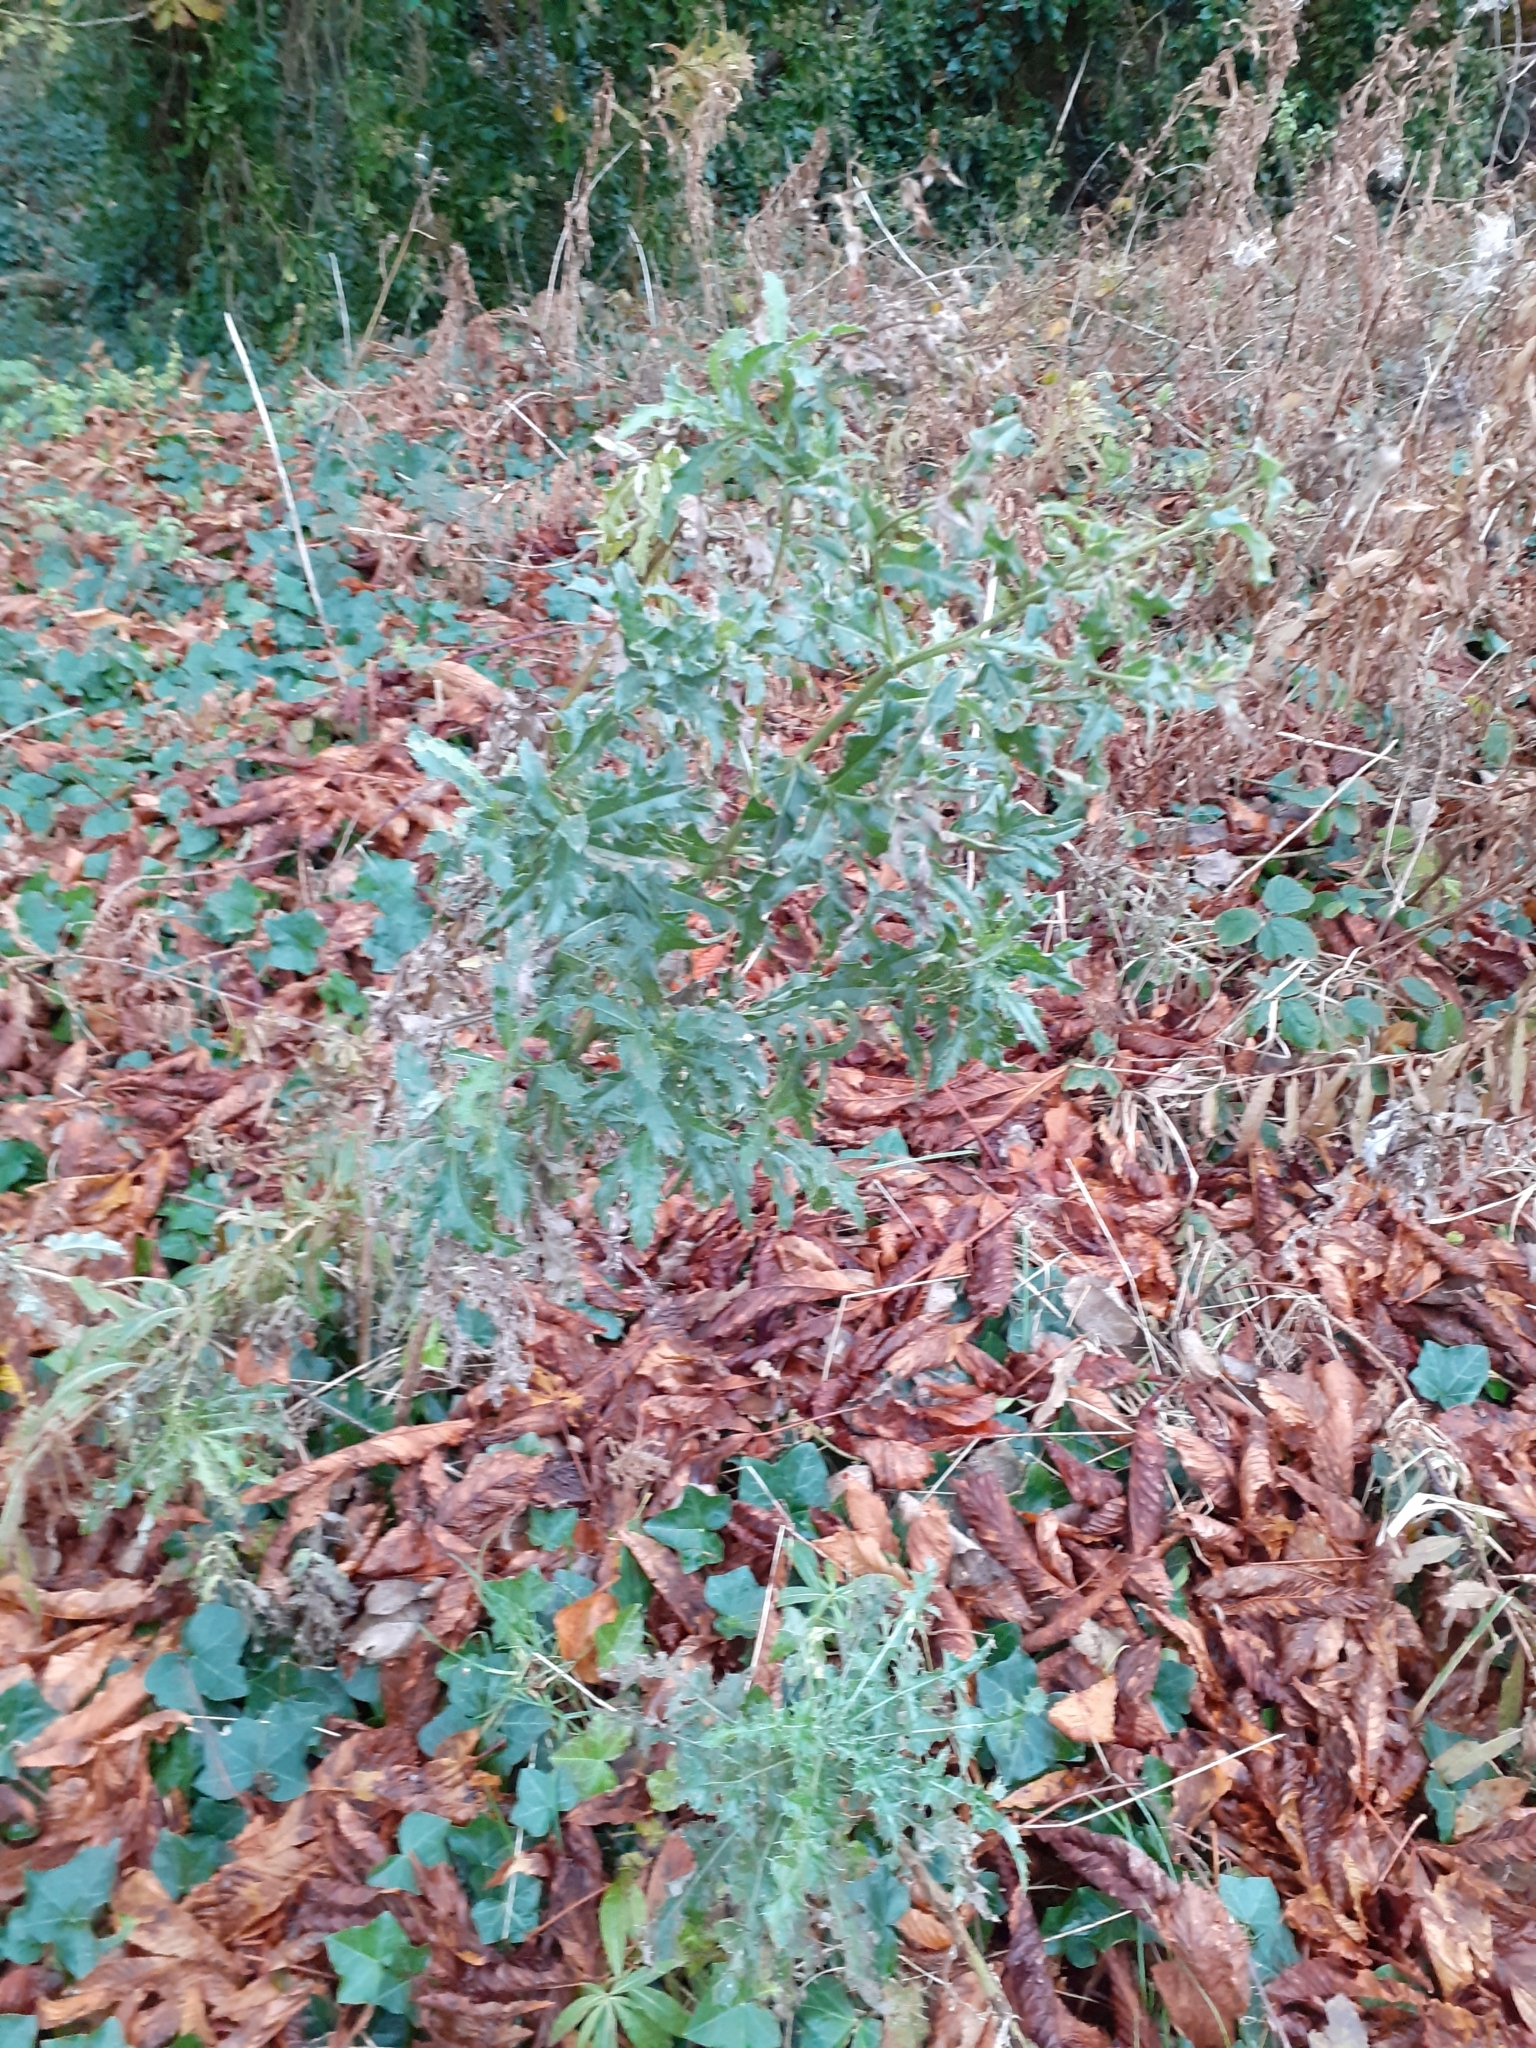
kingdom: Plantae
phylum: Tracheophyta
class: Magnoliopsida
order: Asterales
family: Asteraceae
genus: Cirsium
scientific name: Cirsium arvense
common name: Creeping thistle
